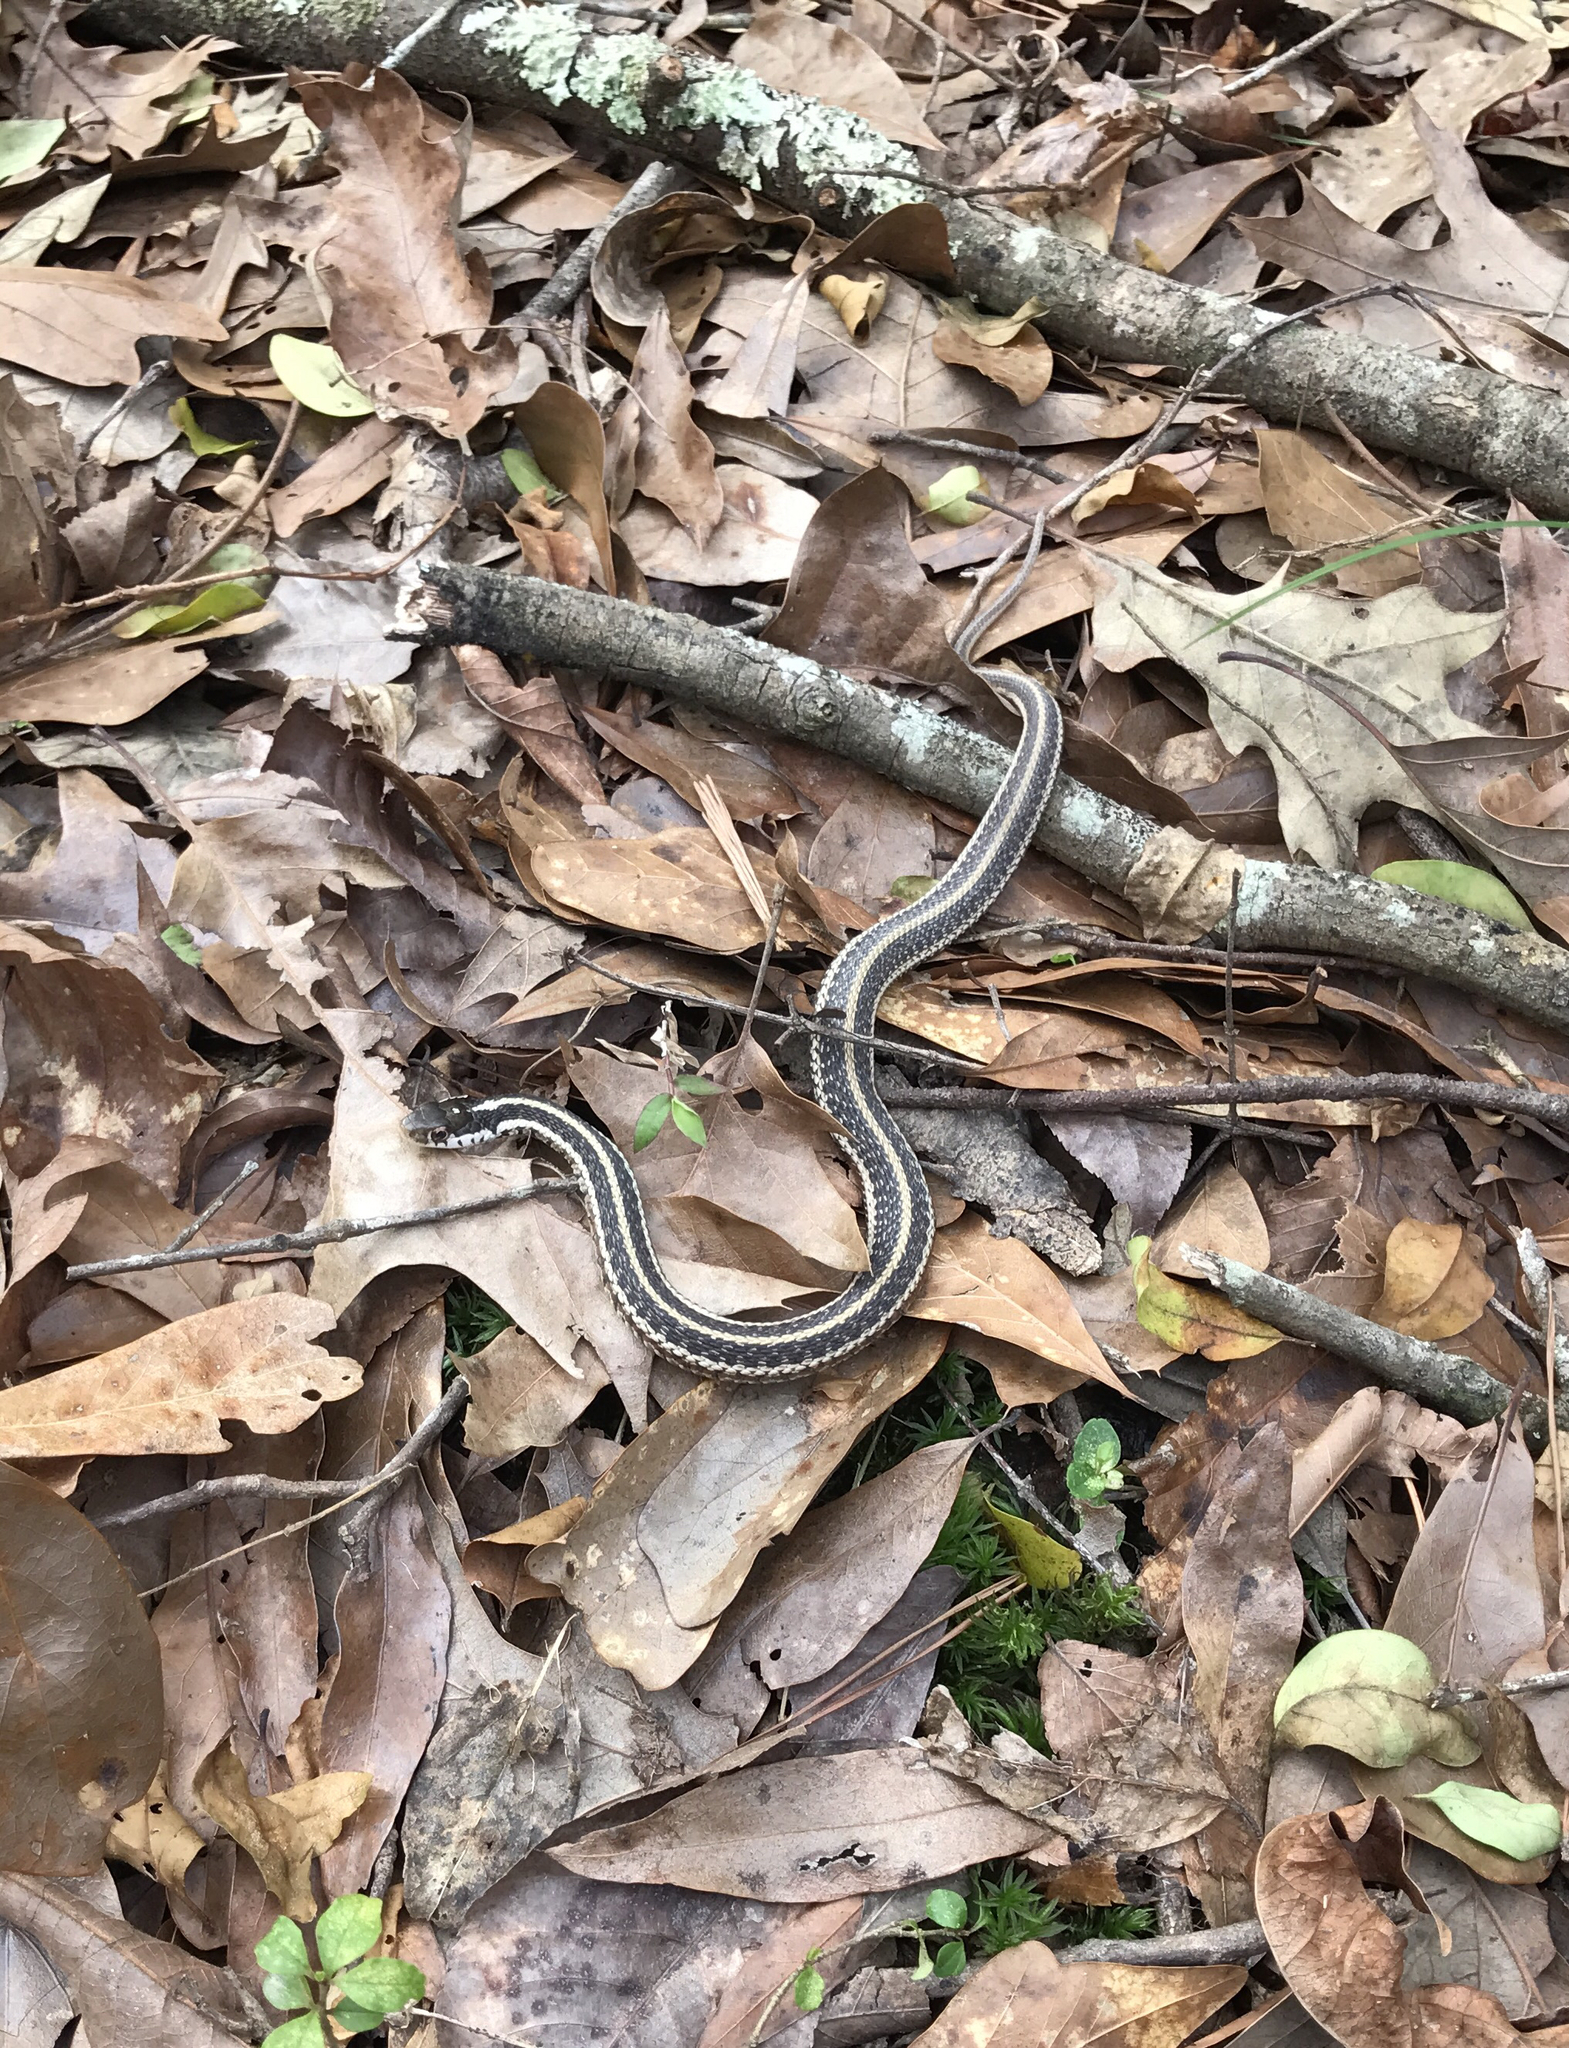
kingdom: Animalia
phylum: Chordata
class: Squamata
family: Colubridae
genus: Thamnophis
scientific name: Thamnophis sirtalis
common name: Common garter snake
